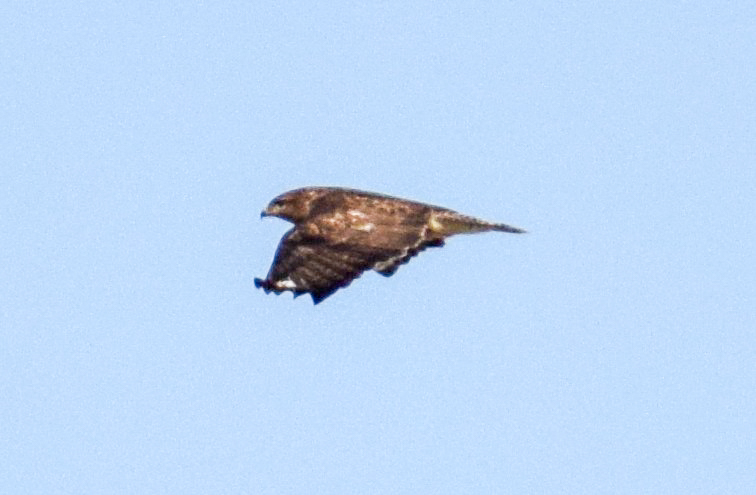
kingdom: Animalia
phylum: Chordata
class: Aves
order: Accipitriformes
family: Accipitridae
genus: Buteo
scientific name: Buteo buteo
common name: Common buzzard
